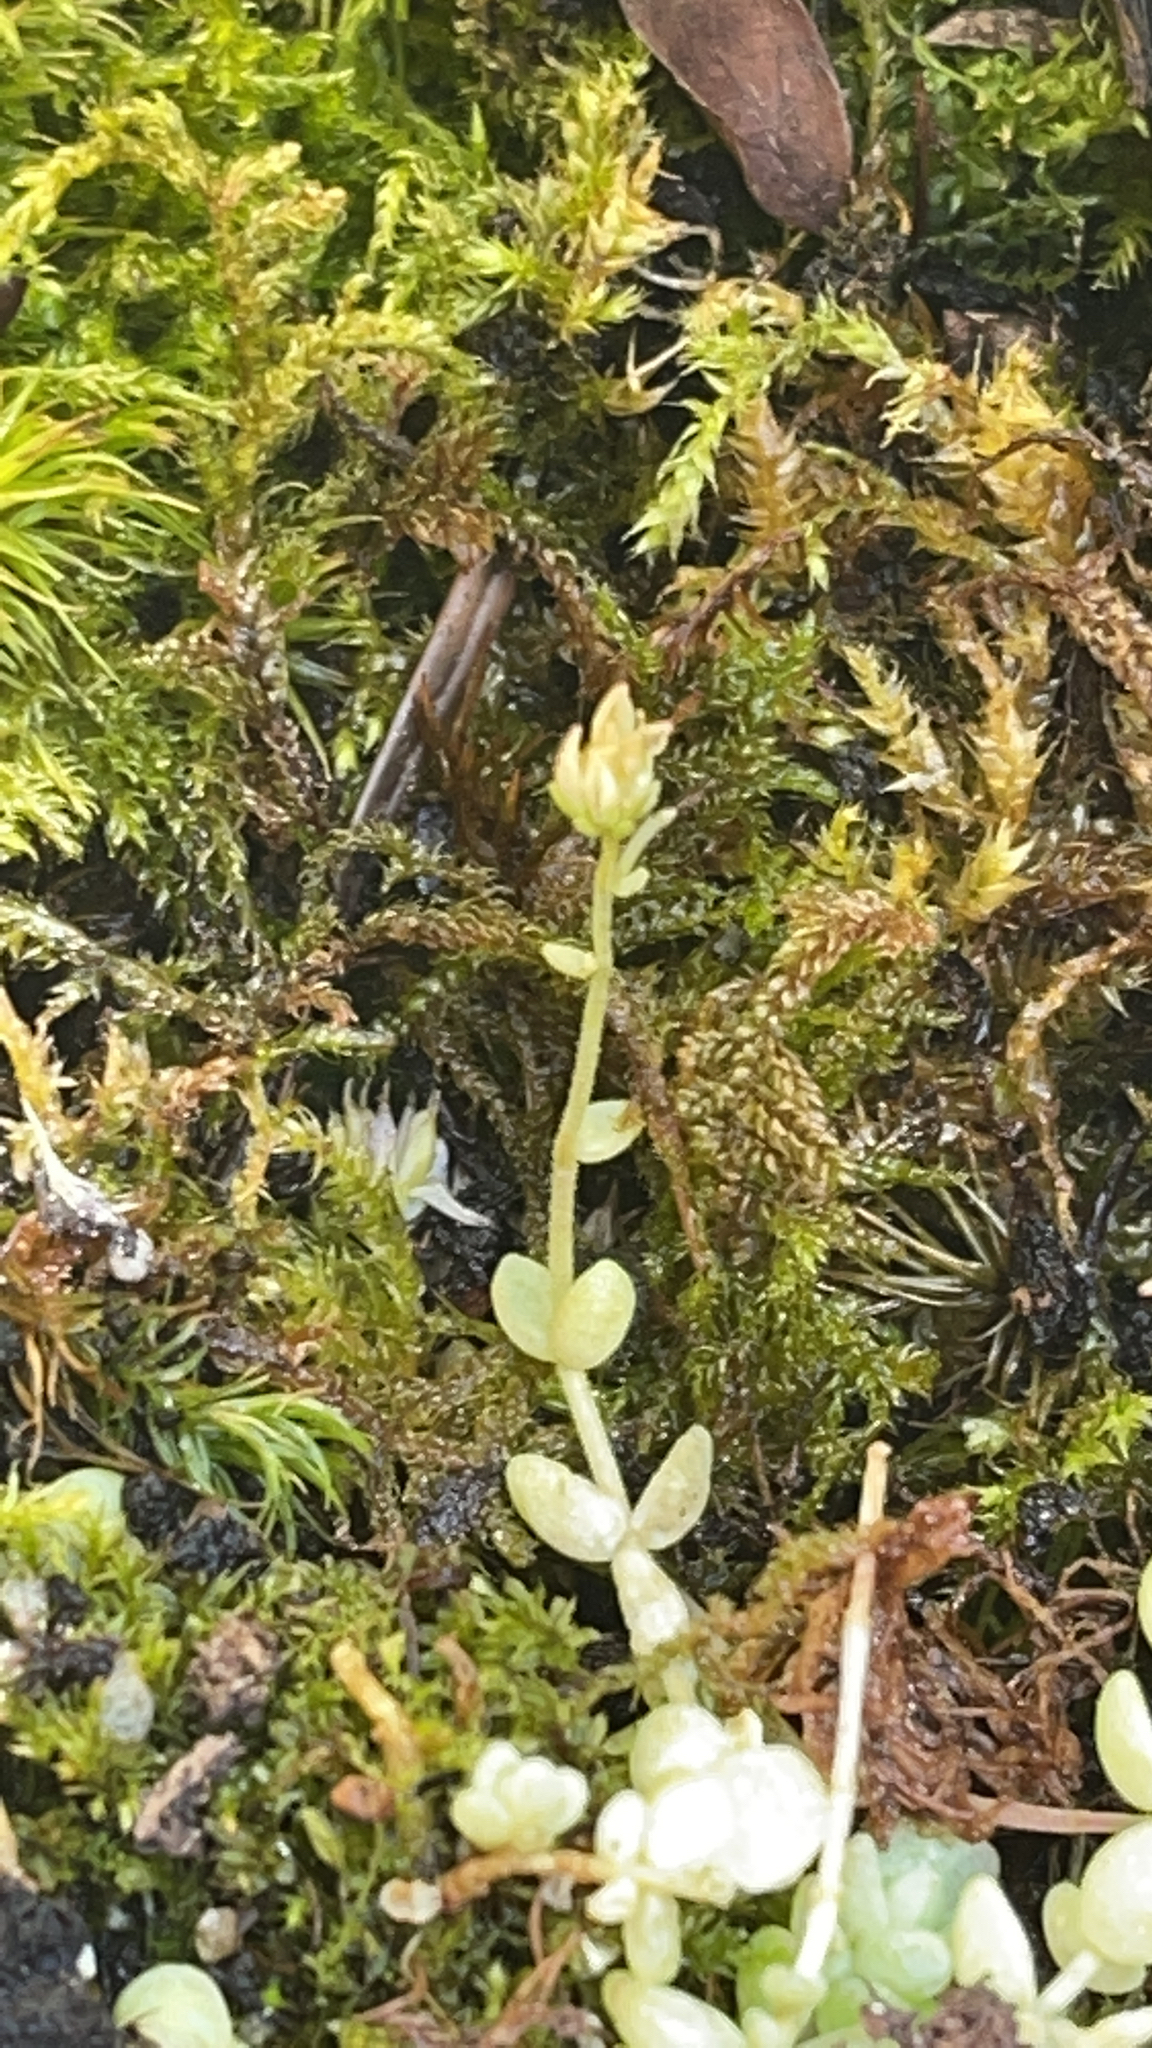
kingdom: Plantae
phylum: Tracheophyta
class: Magnoliopsida
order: Saxifragales
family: Crassulaceae
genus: Sedum
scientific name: Sedum dasyphyllum
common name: Thick-leaf stonecrop
